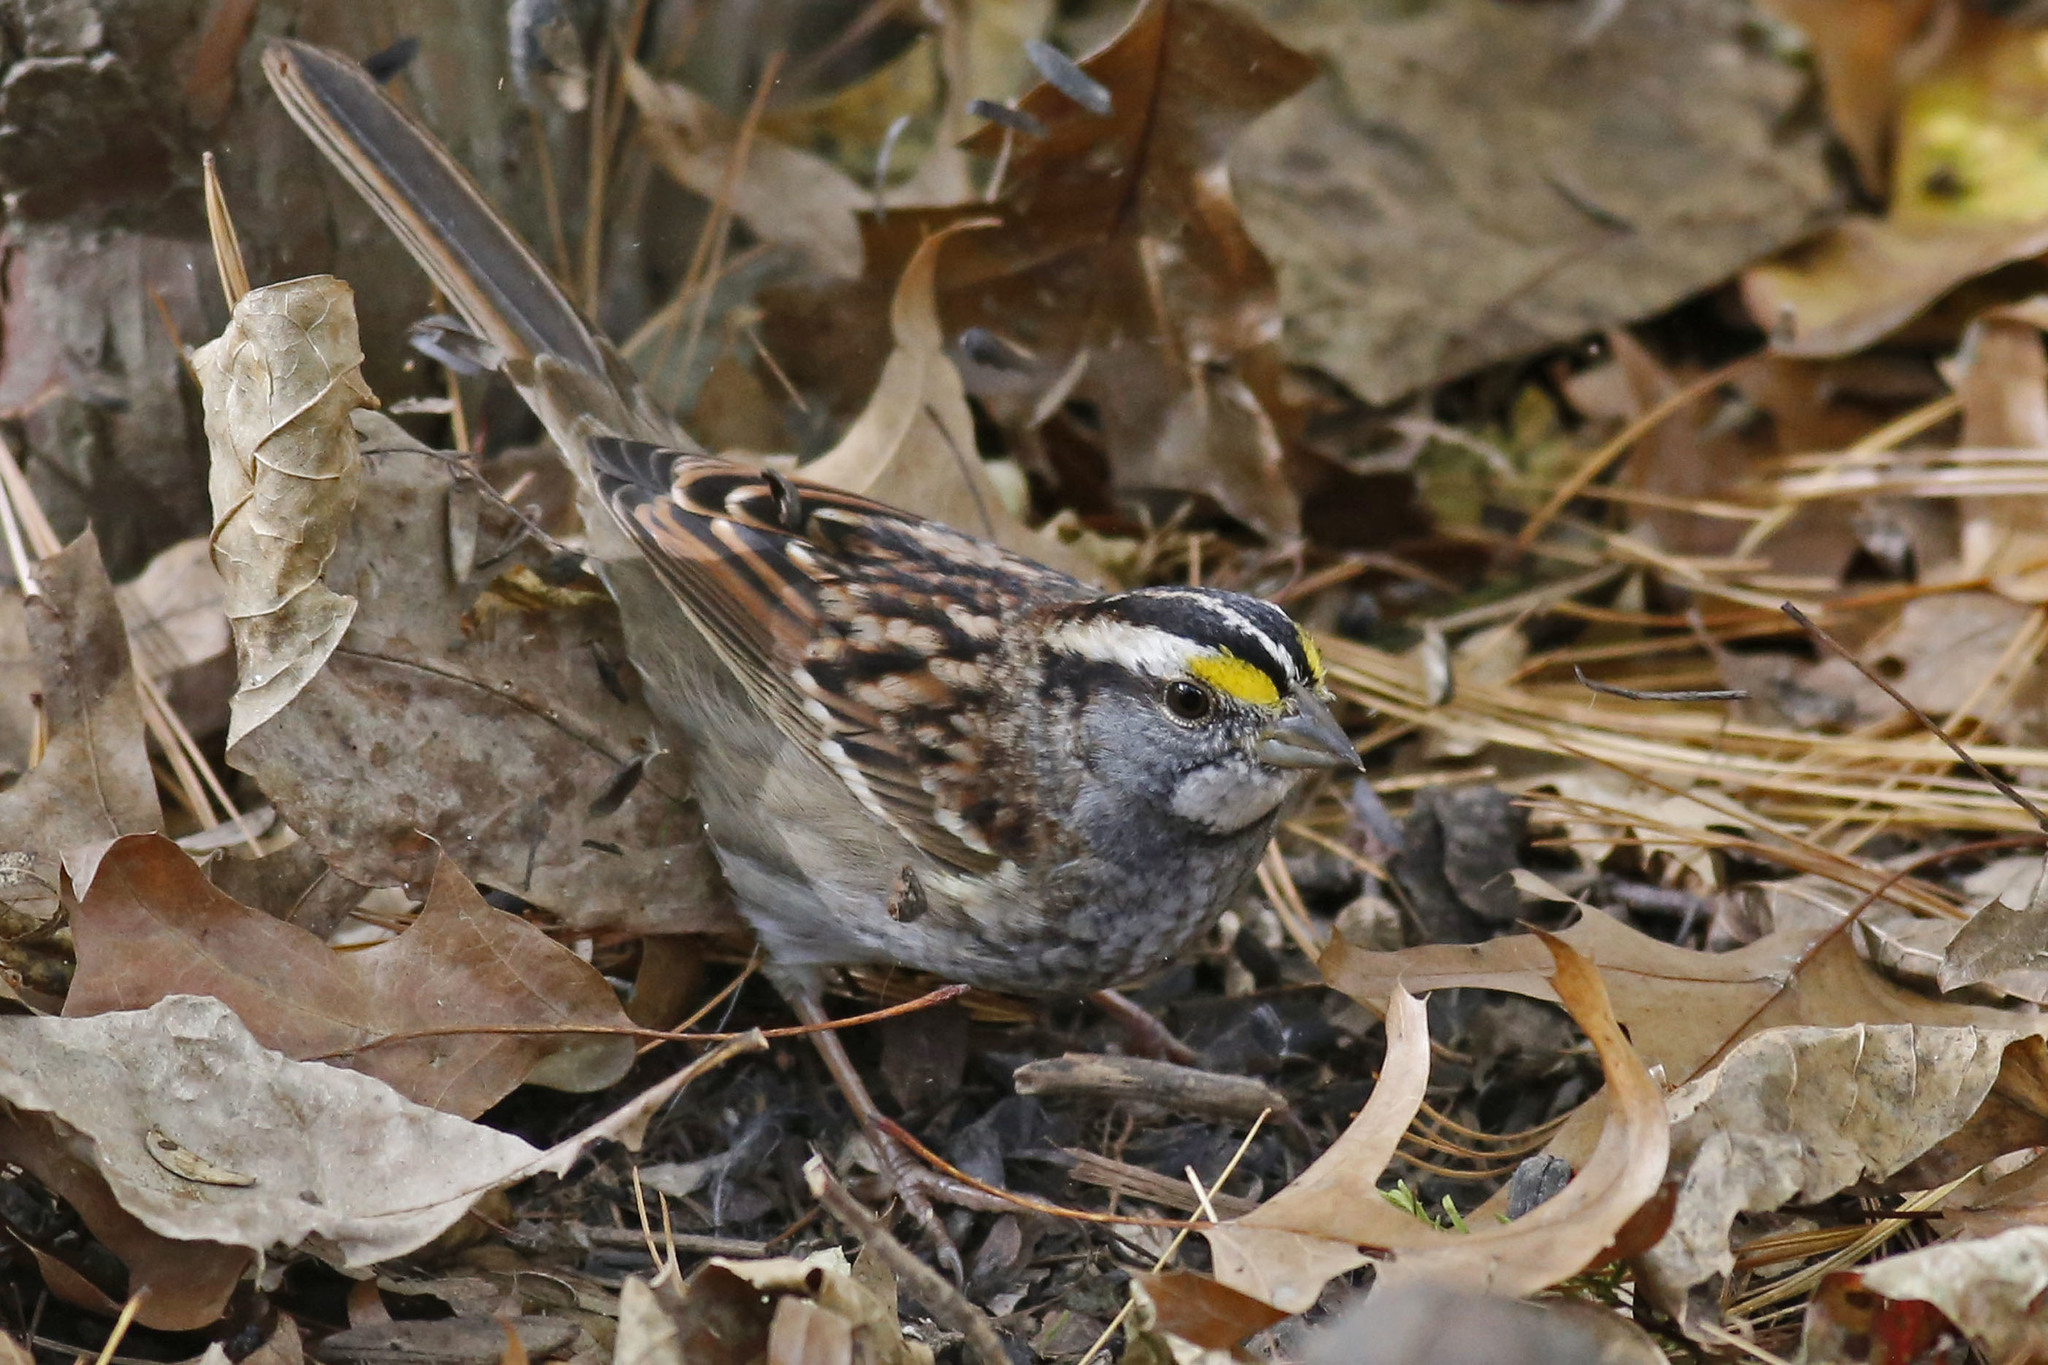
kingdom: Animalia
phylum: Chordata
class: Aves
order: Passeriformes
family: Passerellidae
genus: Zonotrichia
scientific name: Zonotrichia albicollis
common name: White-throated sparrow
